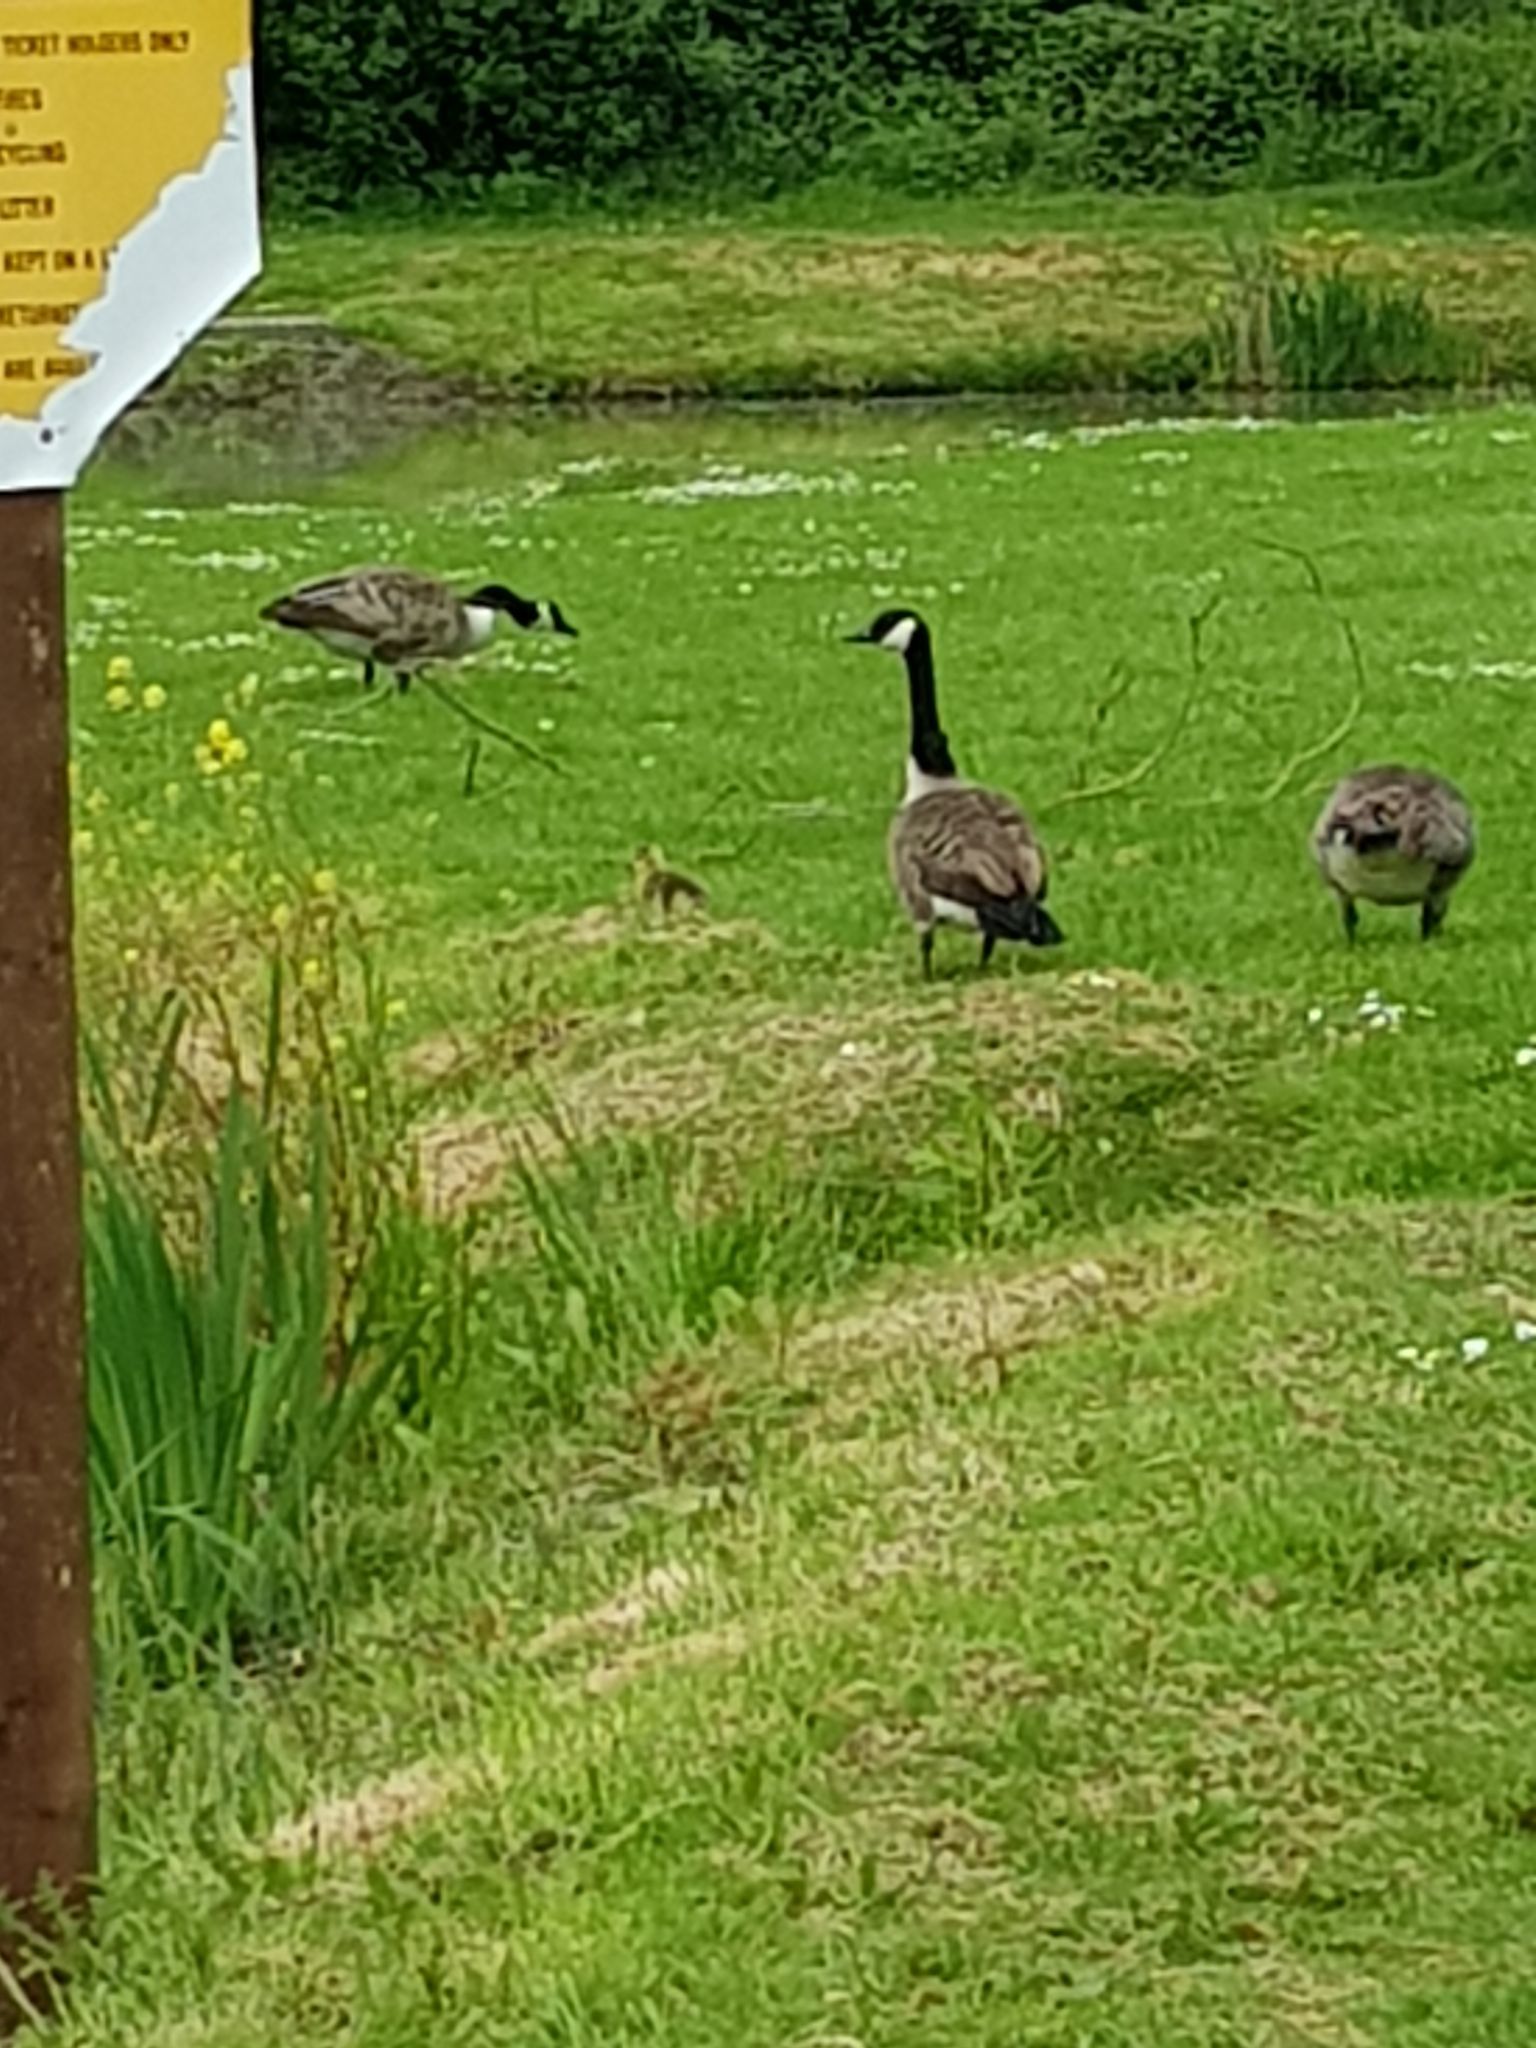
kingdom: Animalia
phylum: Chordata
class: Aves
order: Anseriformes
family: Anatidae
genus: Branta
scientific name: Branta canadensis
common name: Canada goose
